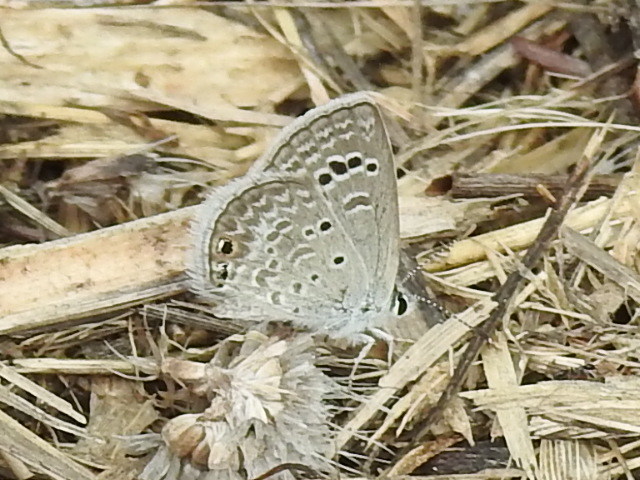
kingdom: Animalia
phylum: Arthropoda
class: Insecta
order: Lepidoptera
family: Lycaenidae
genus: Echinargus
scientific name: Echinargus isola
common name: Reakirt's blue
